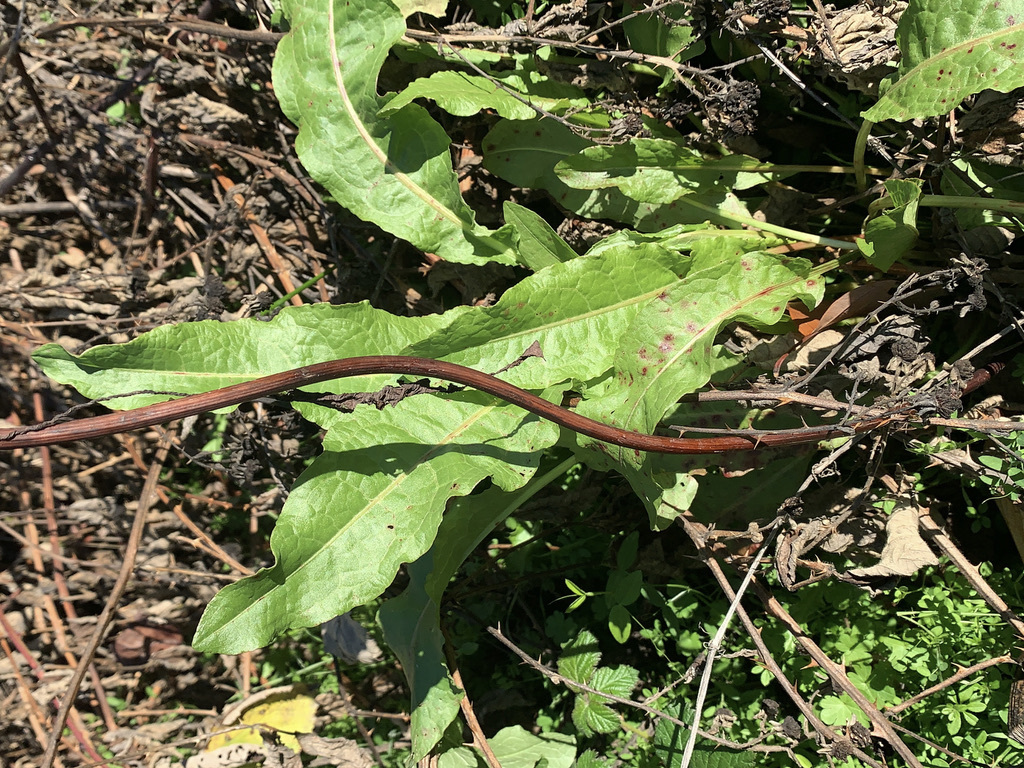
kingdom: Plantae
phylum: Tracheophyta
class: Magnoliopsida
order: Caryophyllales
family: Polygonaceae
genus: Rumex
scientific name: Rumex crispus
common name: Curled dock
